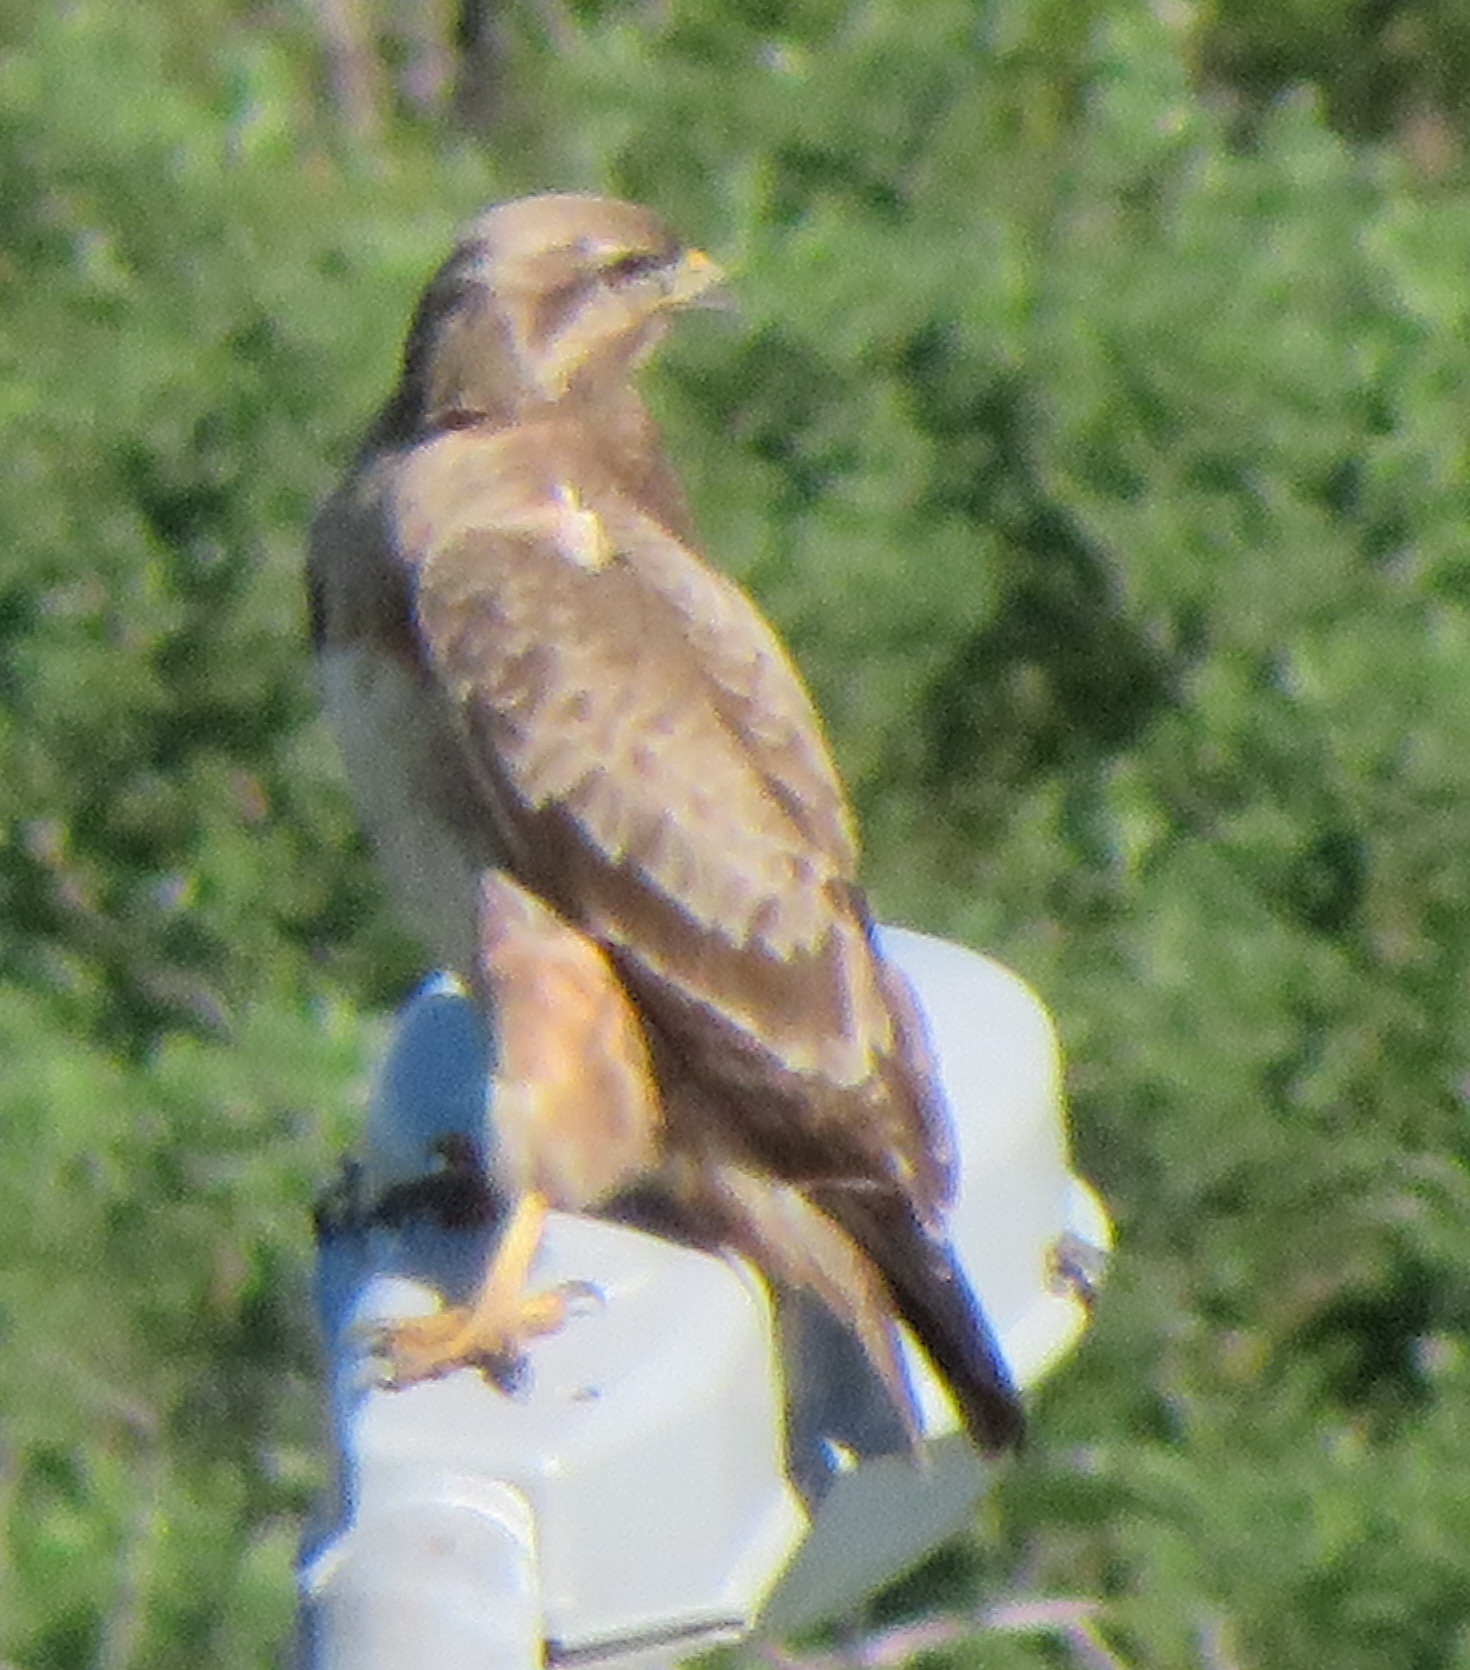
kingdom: Animalia
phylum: Chordata
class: Aves
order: Accipitriformes
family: Accipitridae
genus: Buteo
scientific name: Buteo trizonatus
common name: Forest buzzard
